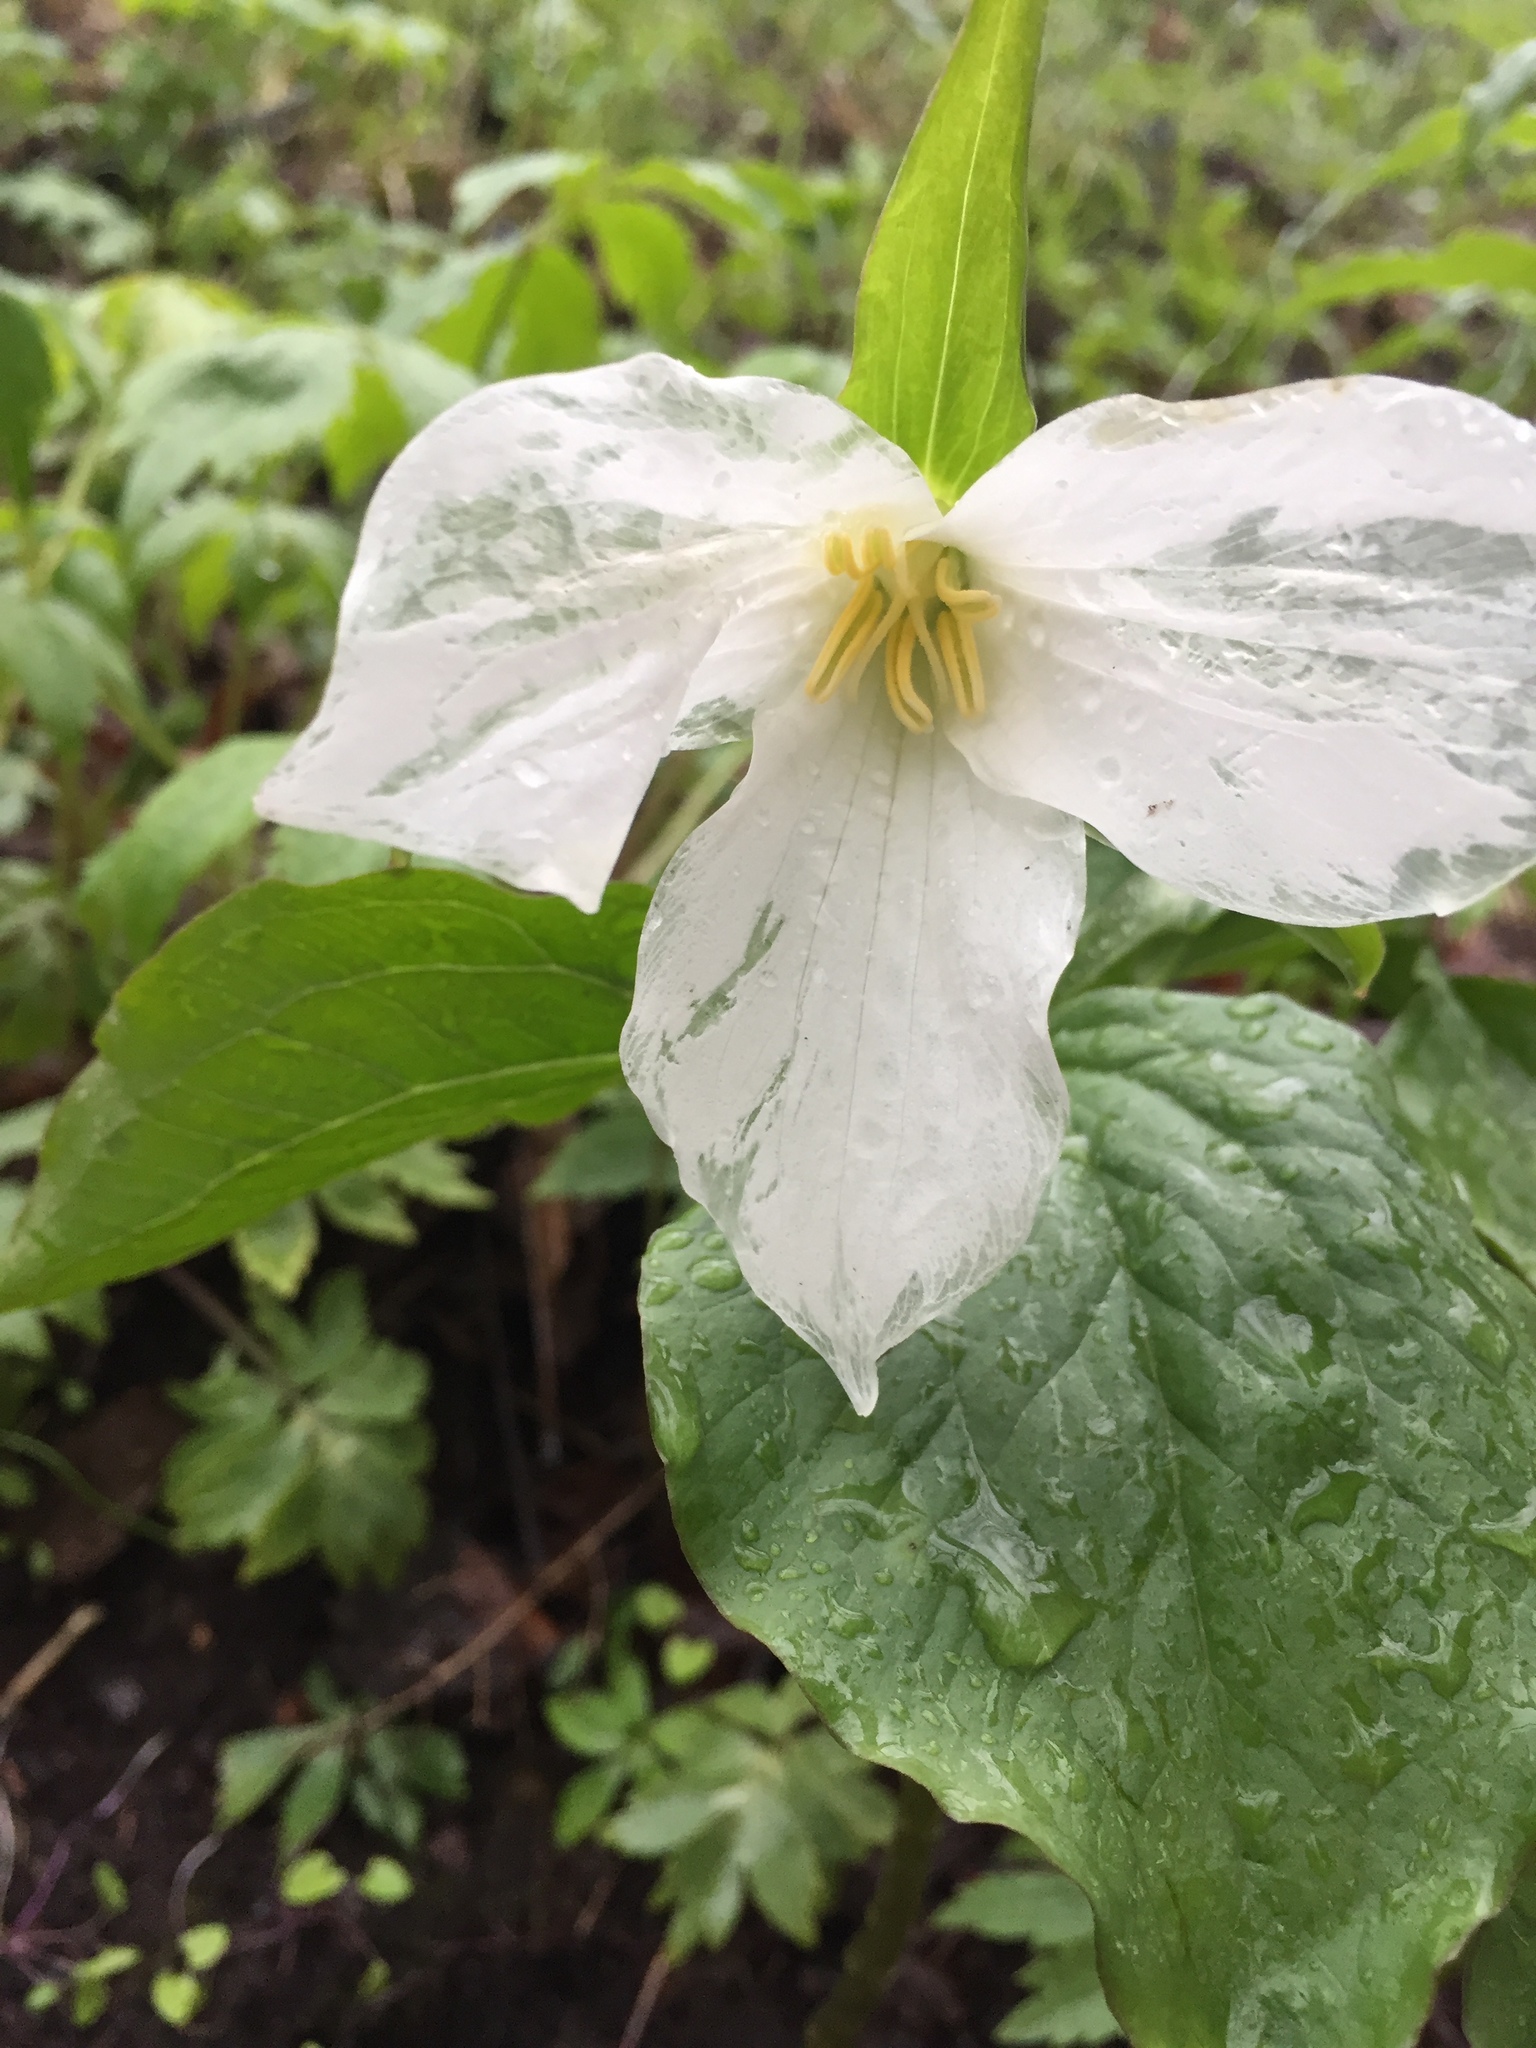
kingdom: Plantae
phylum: Tracheophyta
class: Liliopsida
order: Liliales
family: Melanthiaceae
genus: Trillium
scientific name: Trillium grandiflorum
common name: Great white trillium
